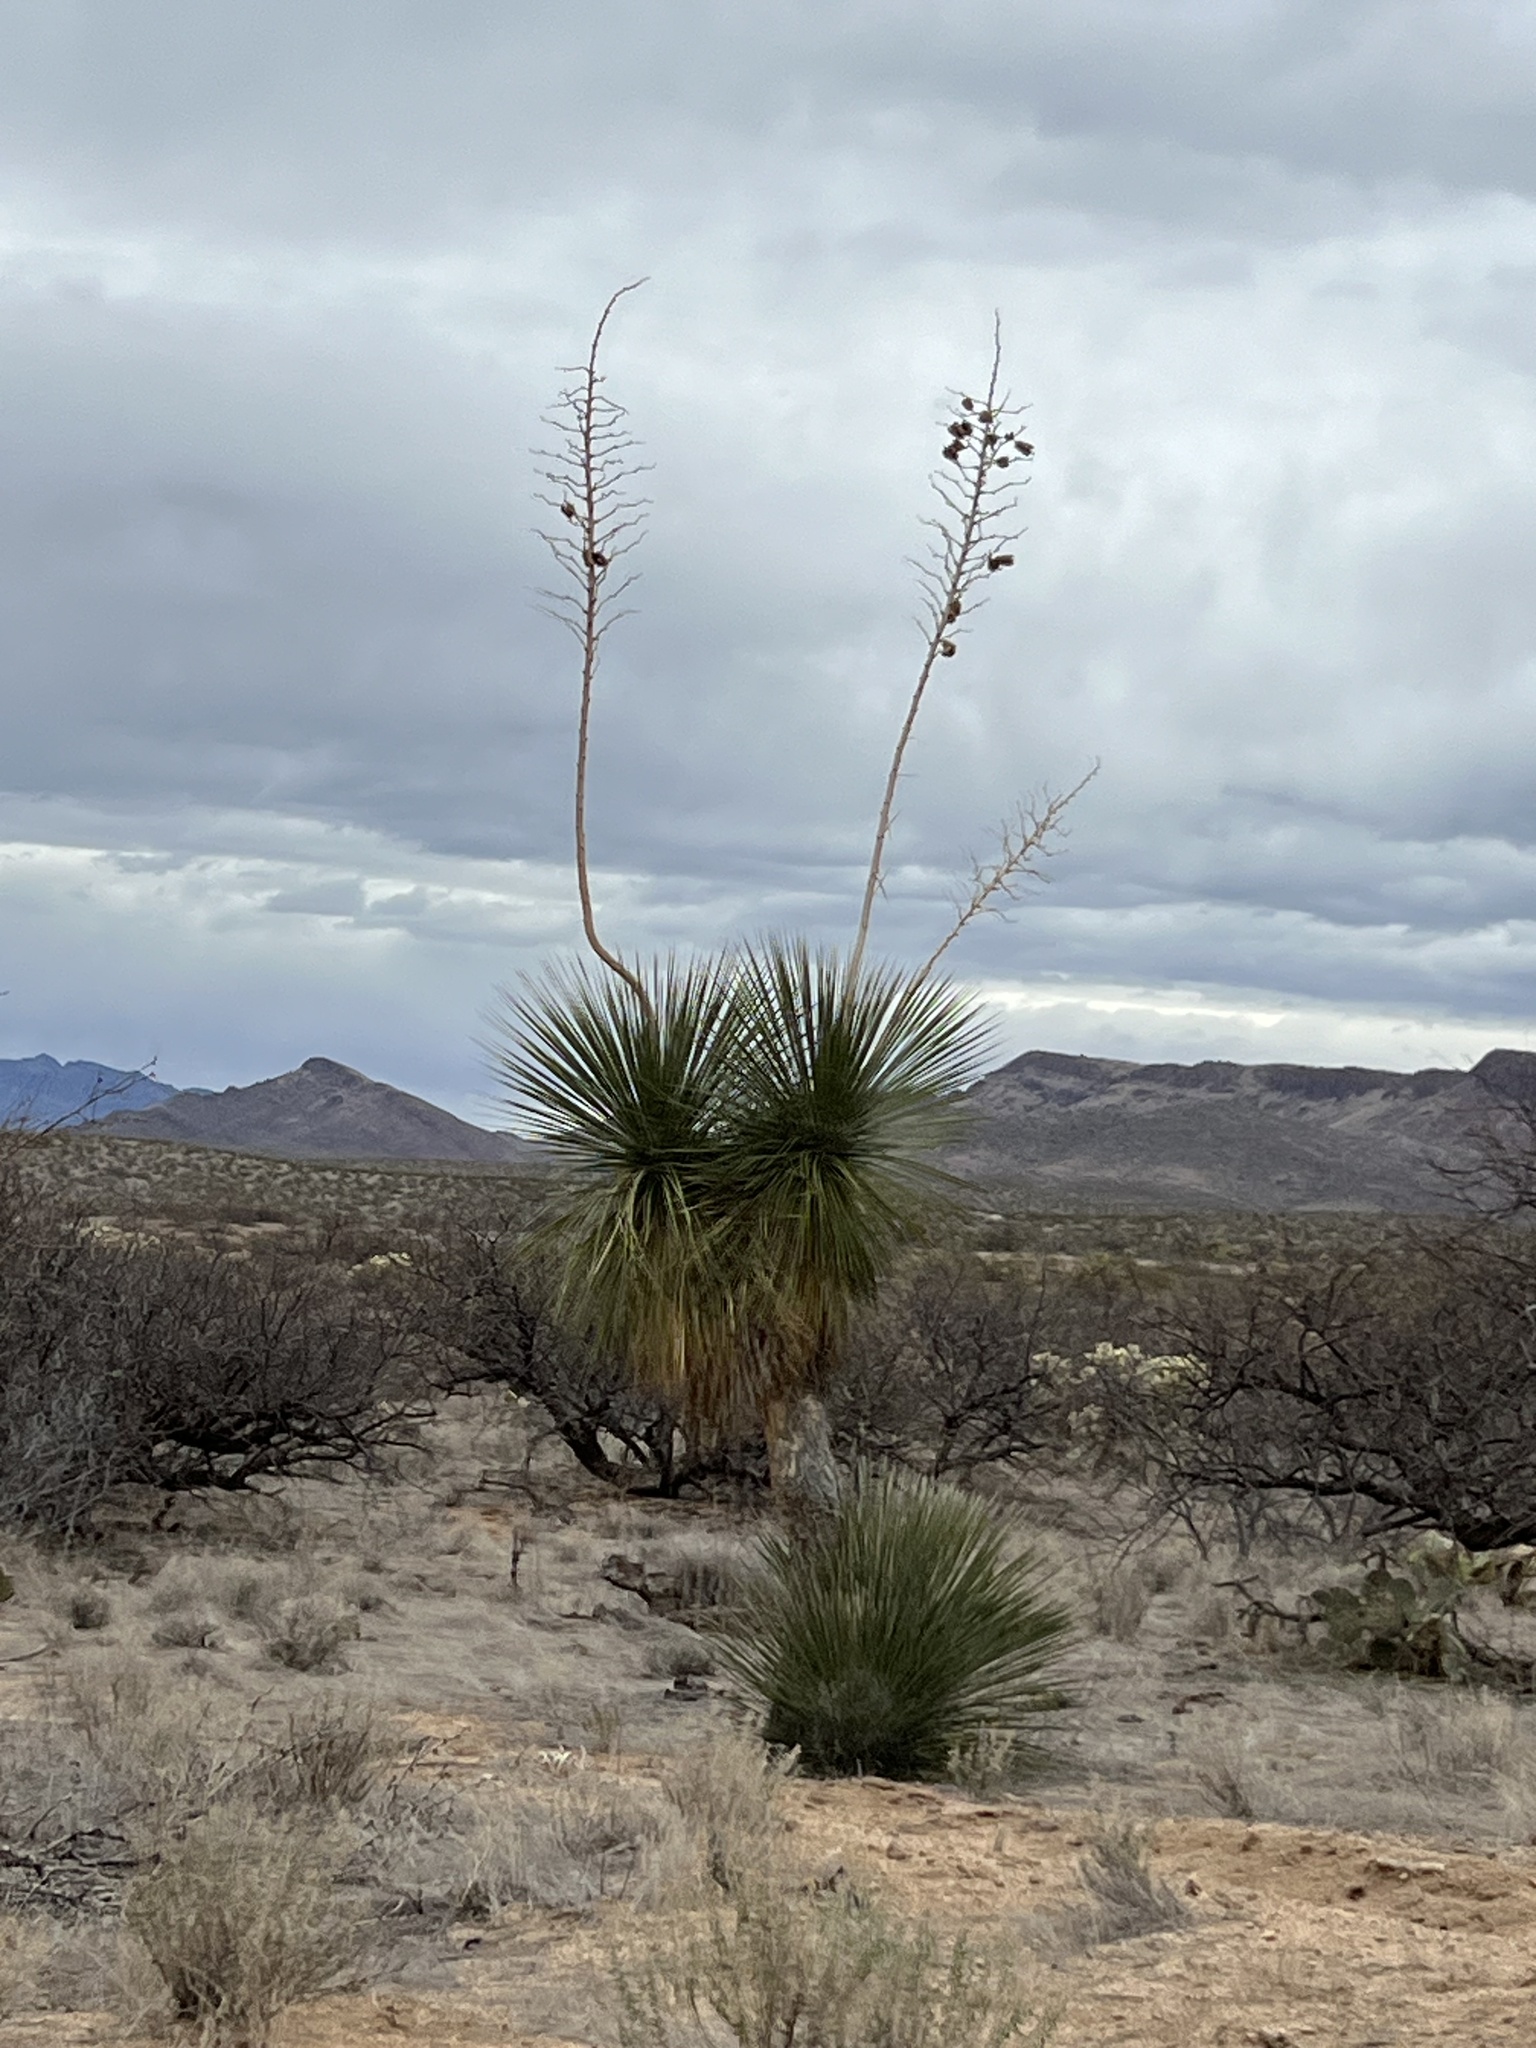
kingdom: Plantae
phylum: Tracheophyta
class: Liliopsida
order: Asparagales
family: Asparagaceae
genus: Yucca
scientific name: Yucca elata
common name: Palmella
